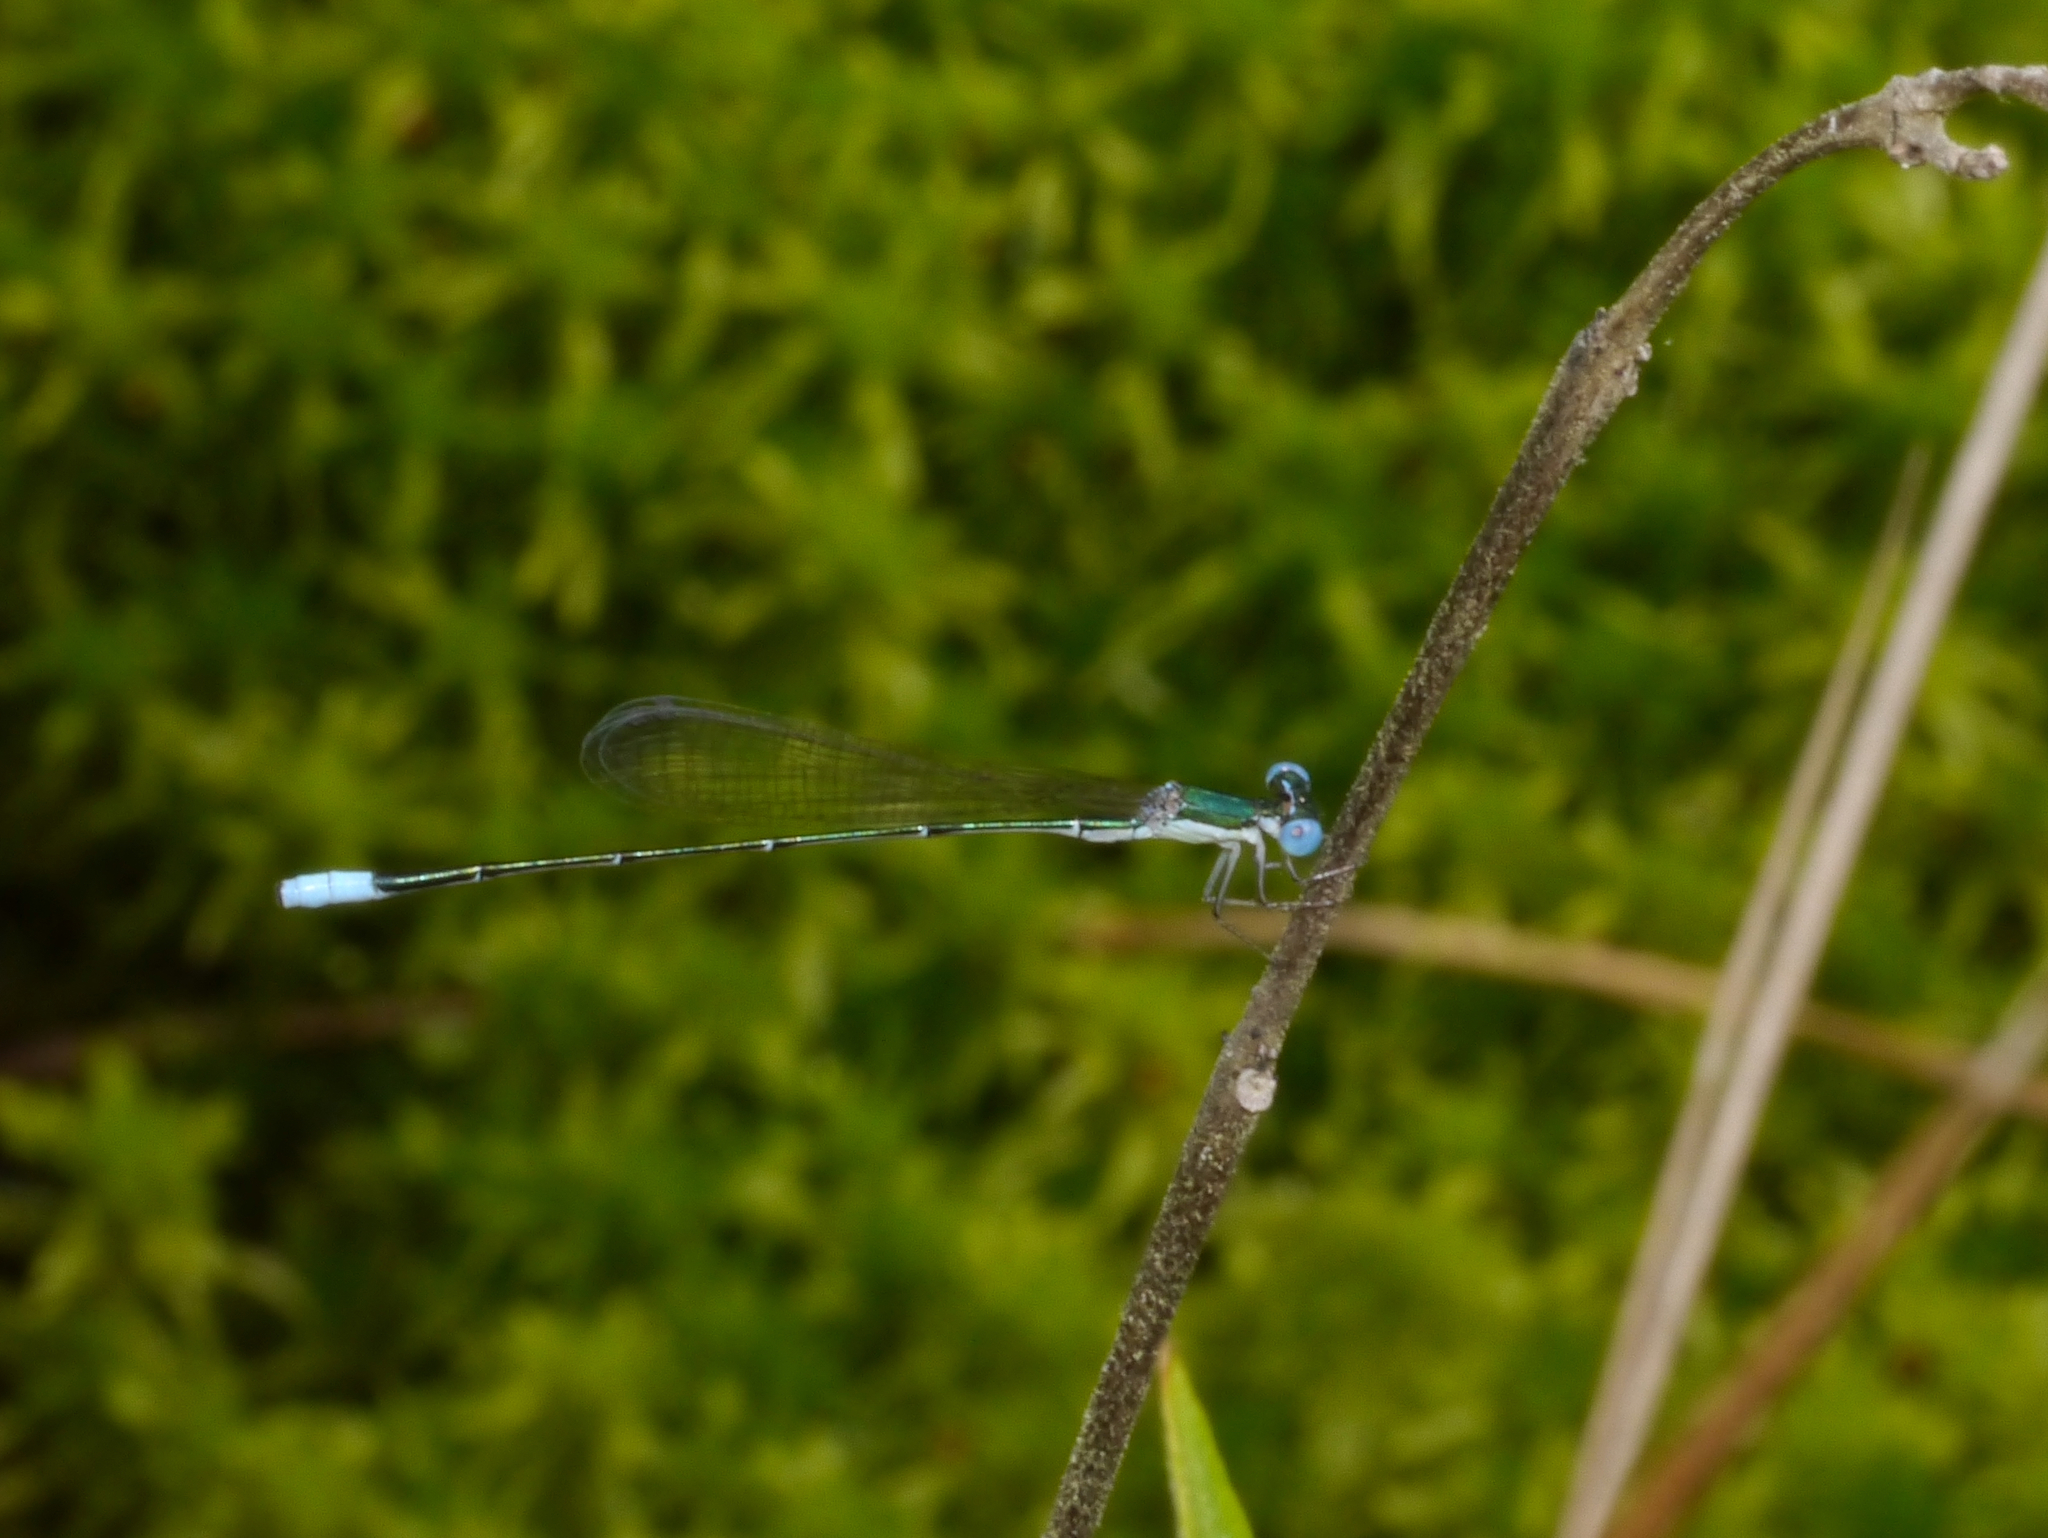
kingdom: Animalia
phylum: Arthropoda
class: Insecta
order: Odonata
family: Coenagrionidae
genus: Nehalennia
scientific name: Nehalennia gracilis
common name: Sphagnum sprite
